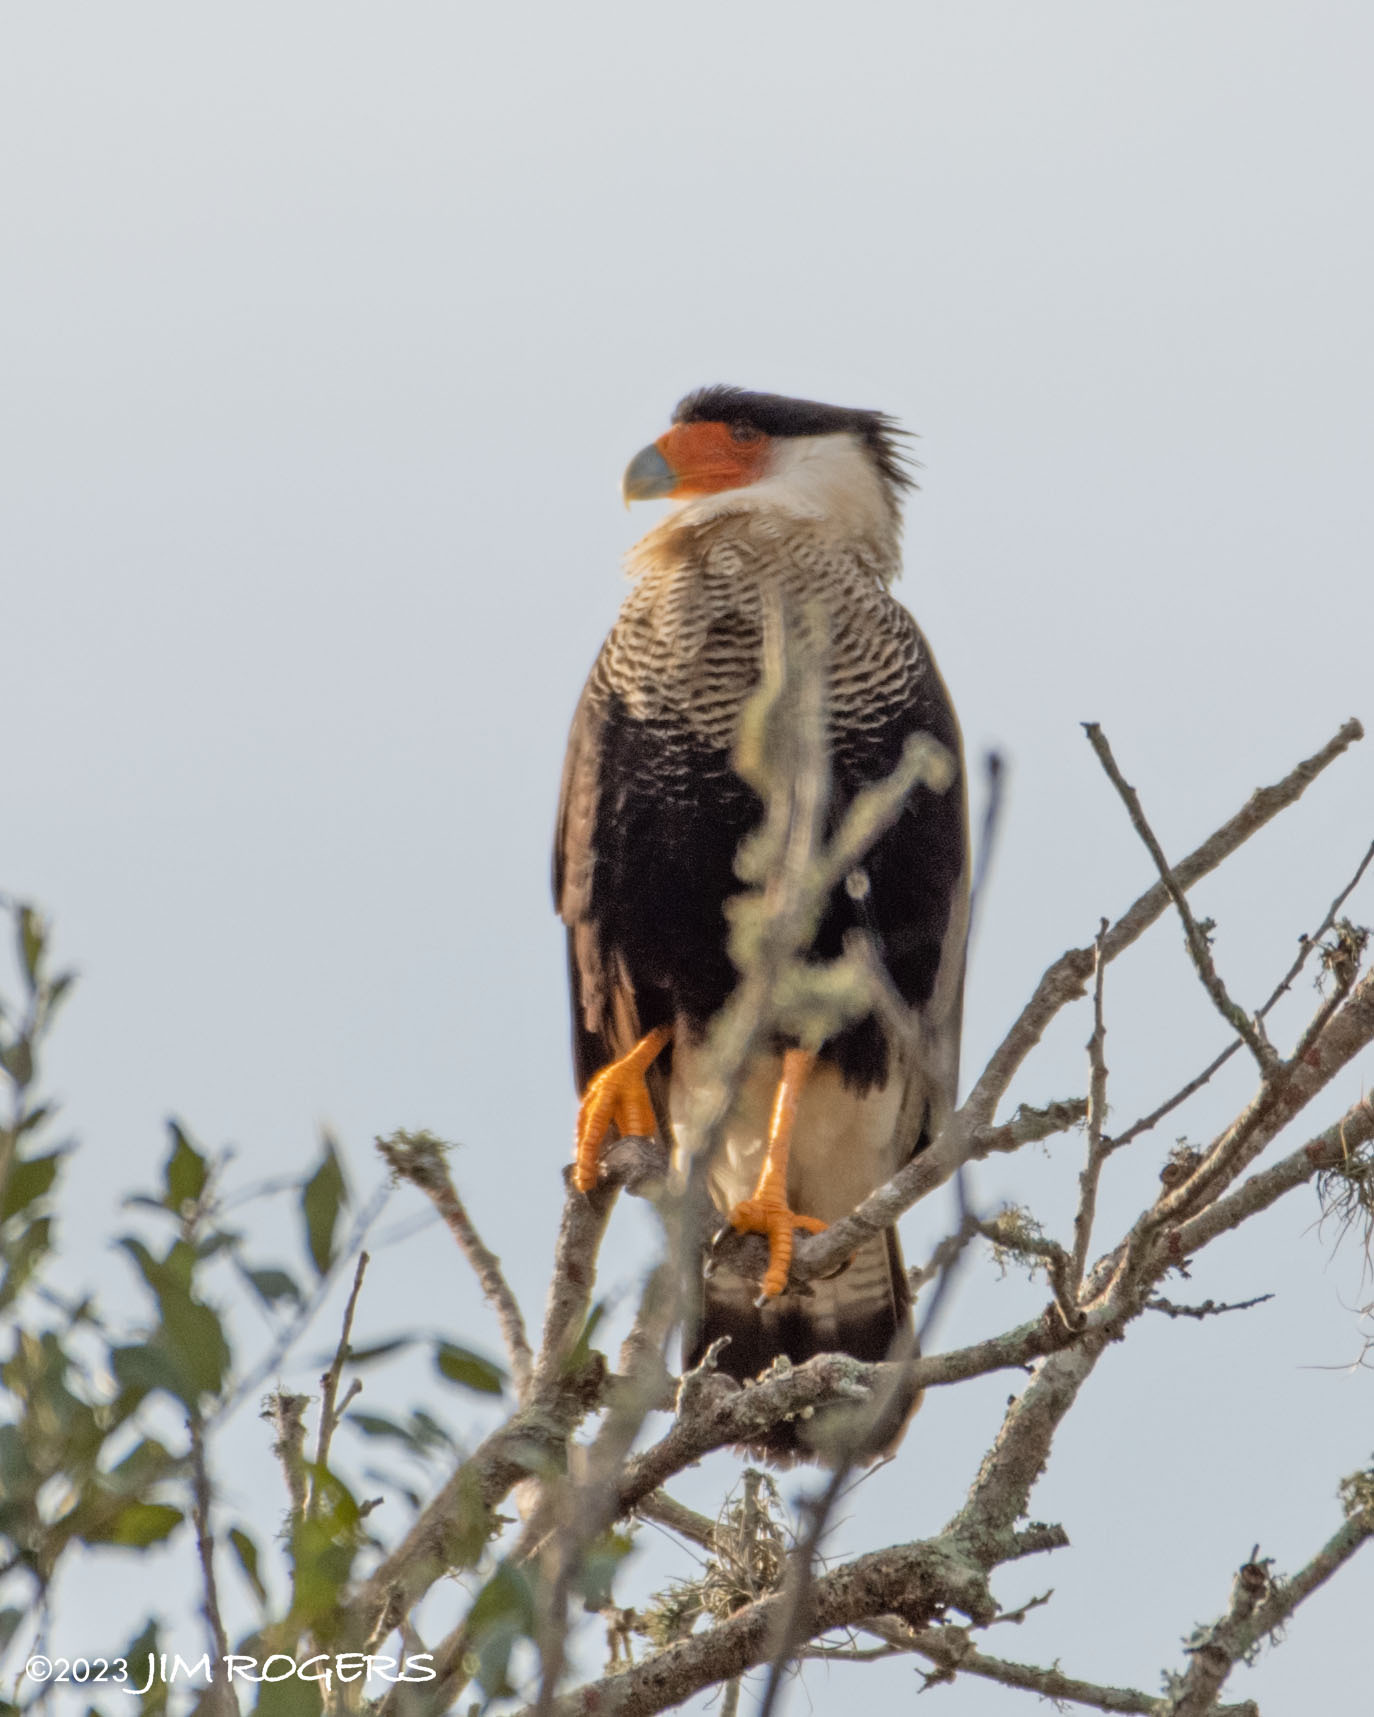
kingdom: Animalia
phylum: Chordata
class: Aves
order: Falconiformes
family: Falconidae
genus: Caracara
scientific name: Caracara plancus
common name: Southern caracara
